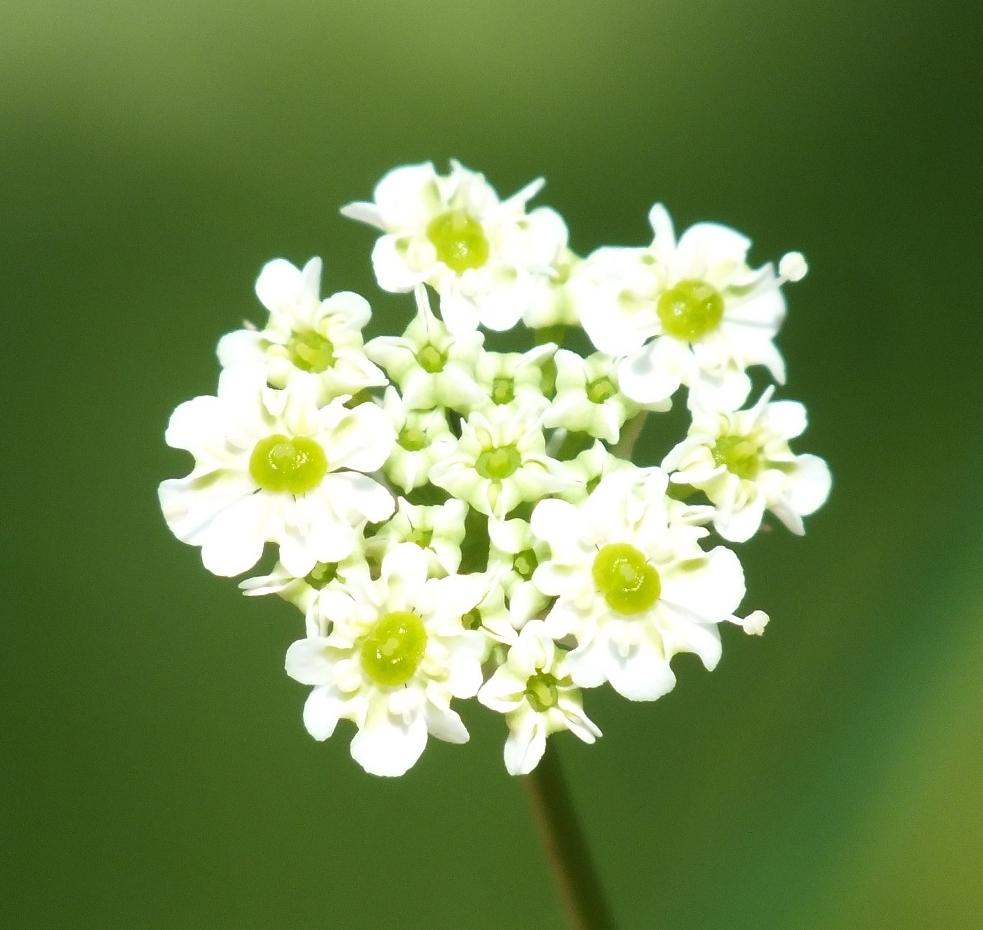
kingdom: Plantae
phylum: Tracheophyta
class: Magnoliopsida
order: Apiales
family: Apiaceae
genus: Chaerophyllum
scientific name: Chaerophyllum prescottii
